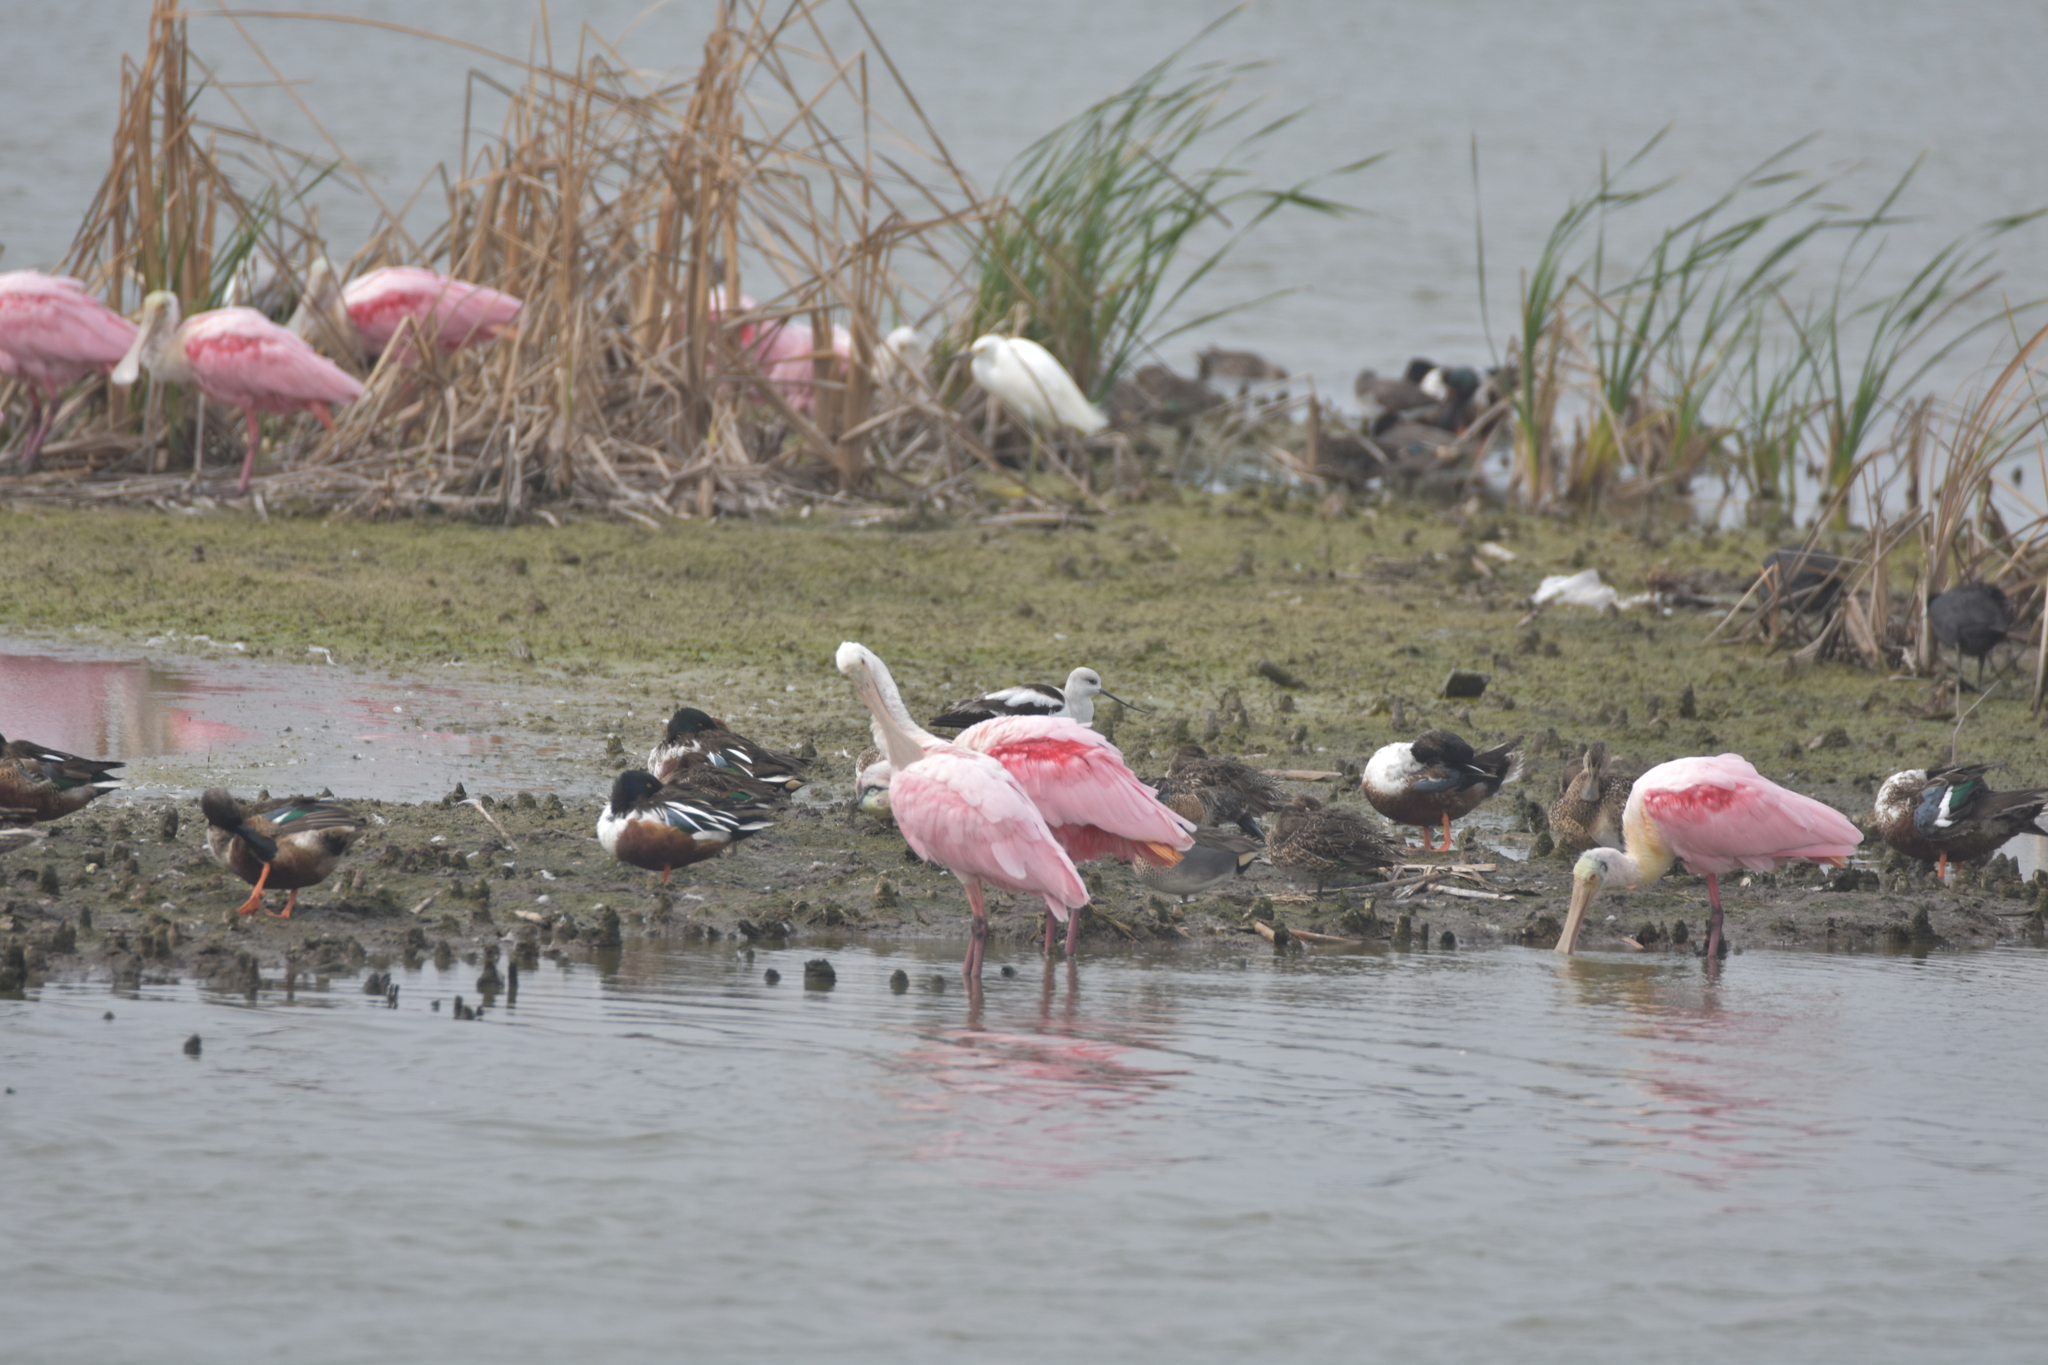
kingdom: Animalia
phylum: Chordata
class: Aves
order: Anseriformes
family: Anatidae
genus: Anas
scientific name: Anas crecca
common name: Eurasian teal
